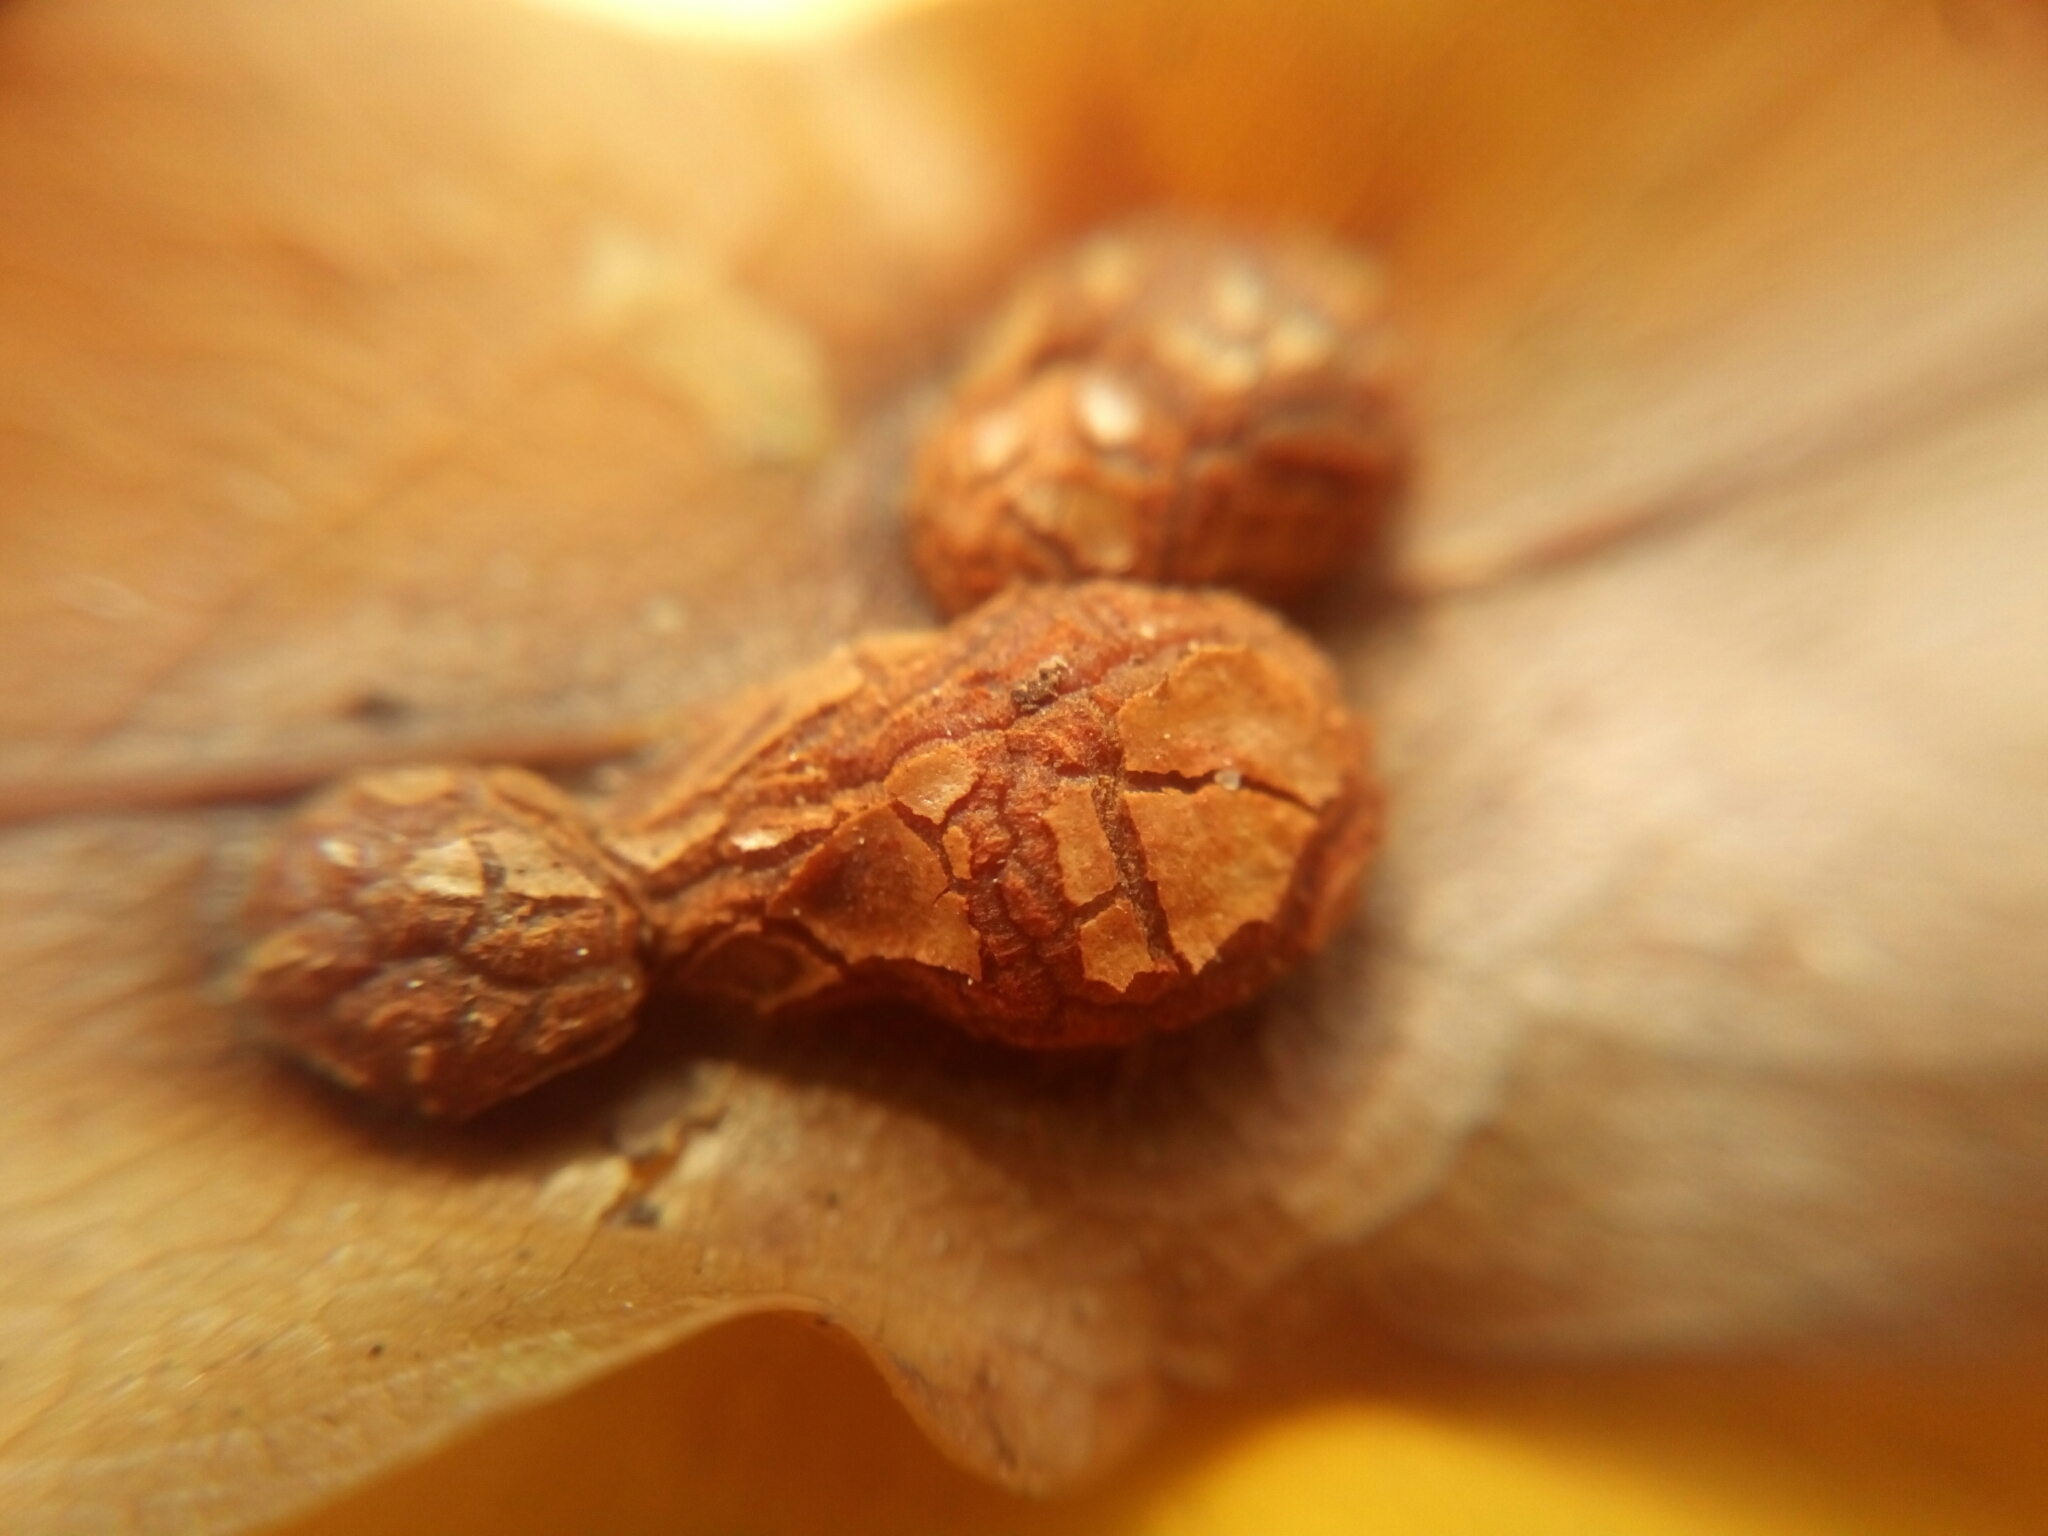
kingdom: Animalia
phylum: Arthropoda
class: Insecta
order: Diptera
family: Cecidomyiidae
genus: Polystepha
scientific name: Polystepha pilulae
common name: Oak leaf gall midge
